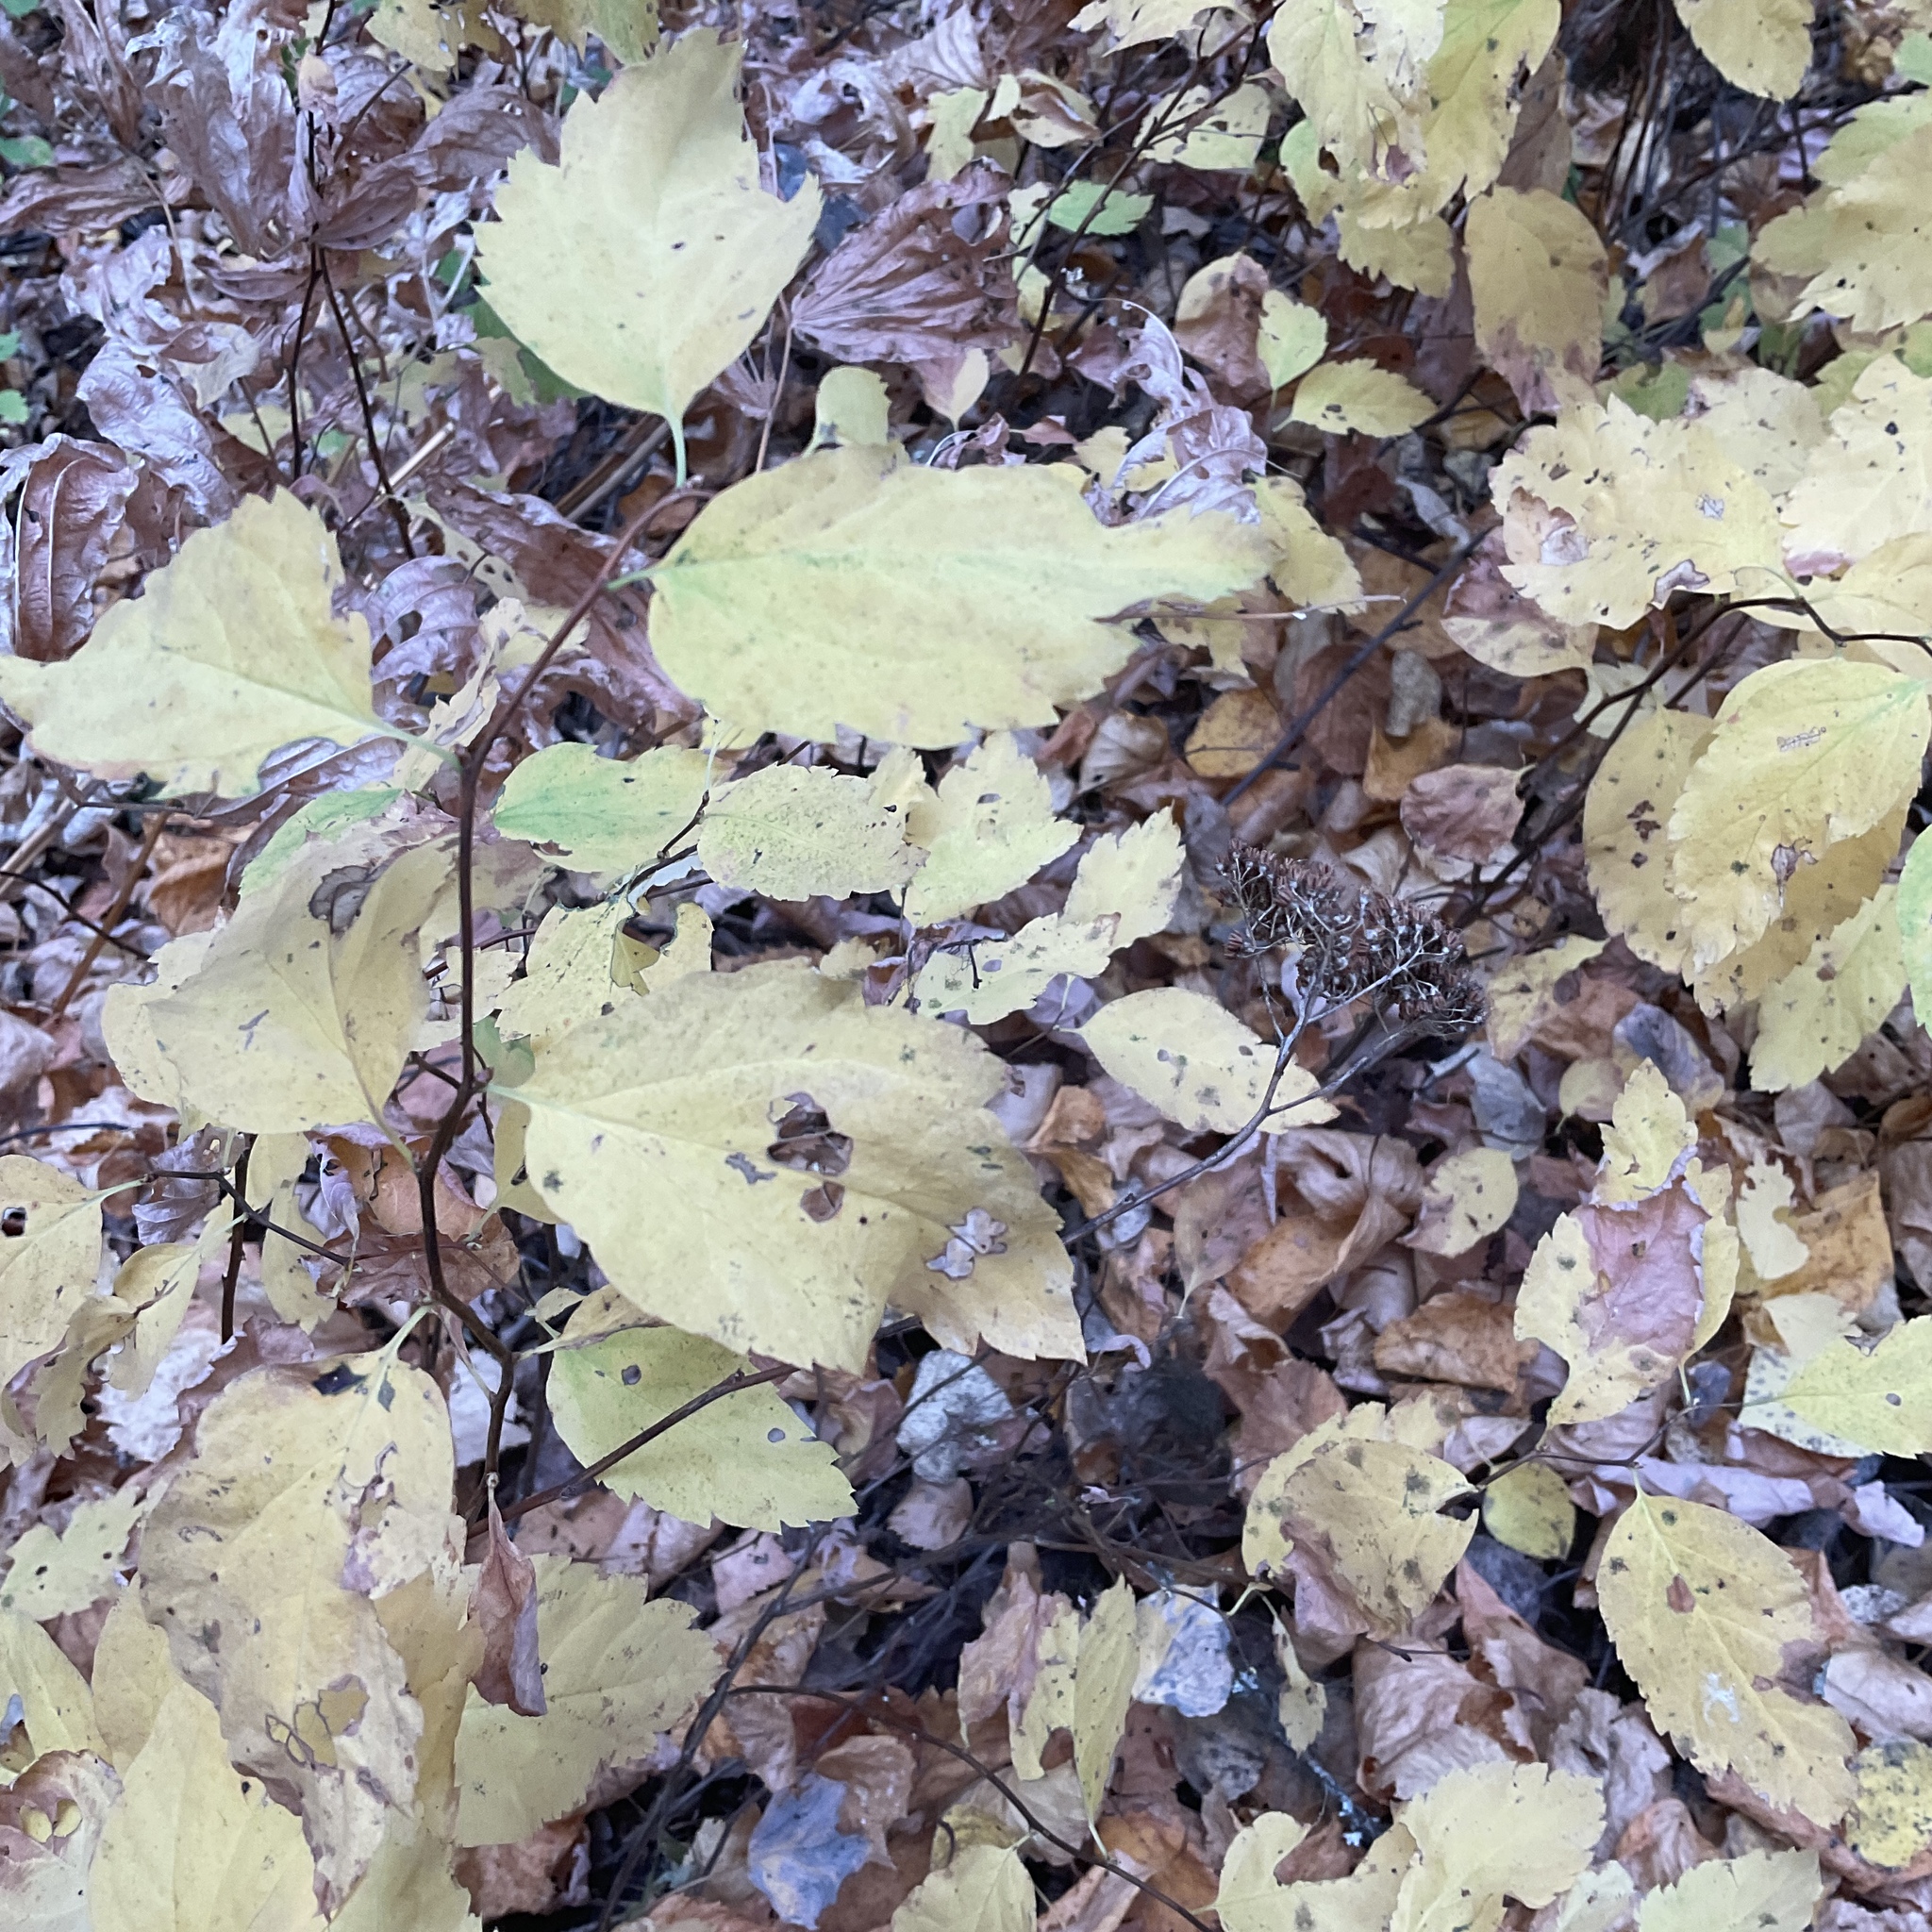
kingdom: Plantae
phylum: Tracheophyta
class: Magnoliopsida
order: Rosales
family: Rosaceae
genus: Spiraea
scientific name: Spiraea lucida
